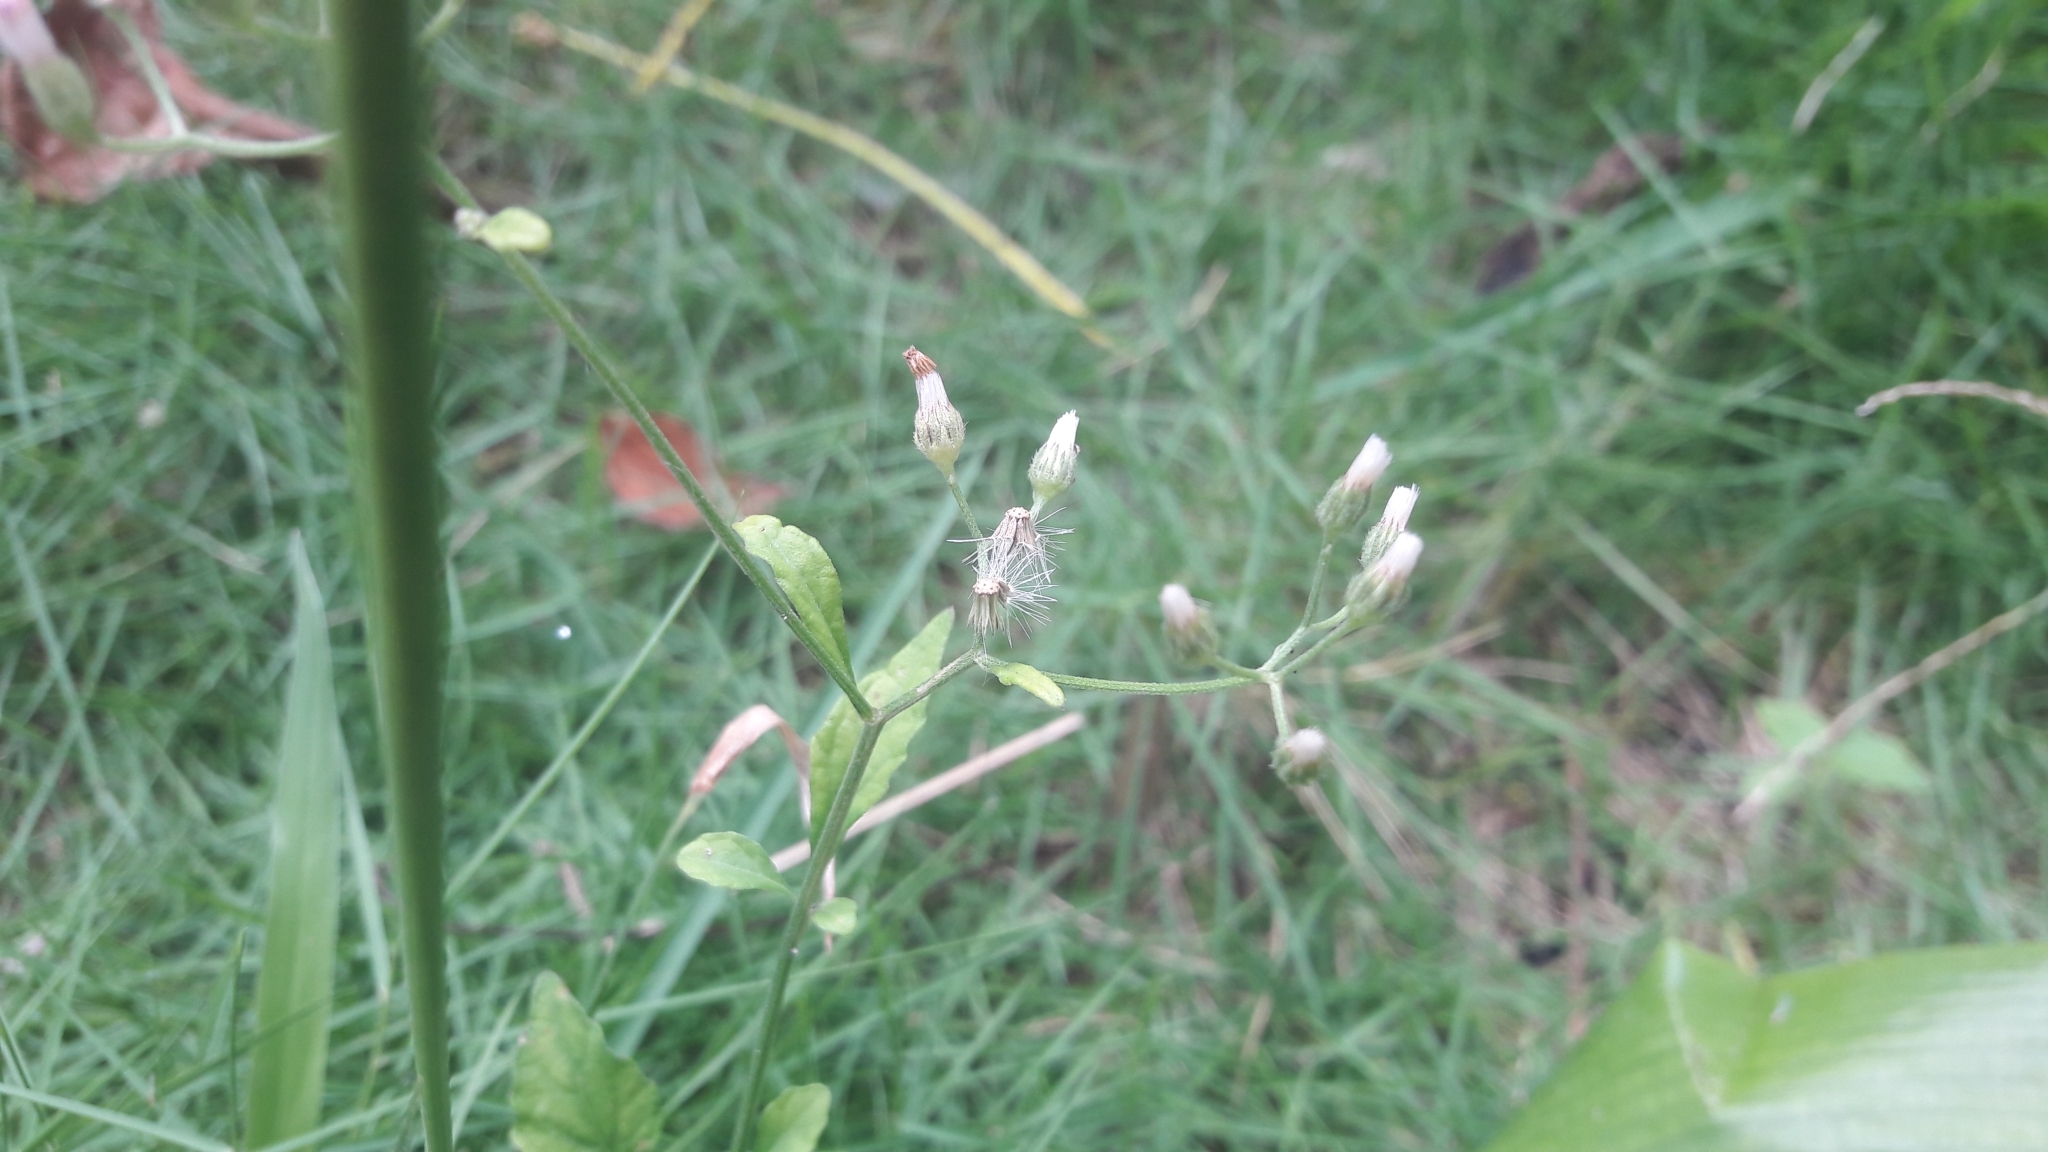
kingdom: Plantae
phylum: Tracheophyta
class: Magnoliopsida
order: Asterales
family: Asteraceae
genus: Cyanthillium
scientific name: Cyanthillium cinereum
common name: Little ironweed
